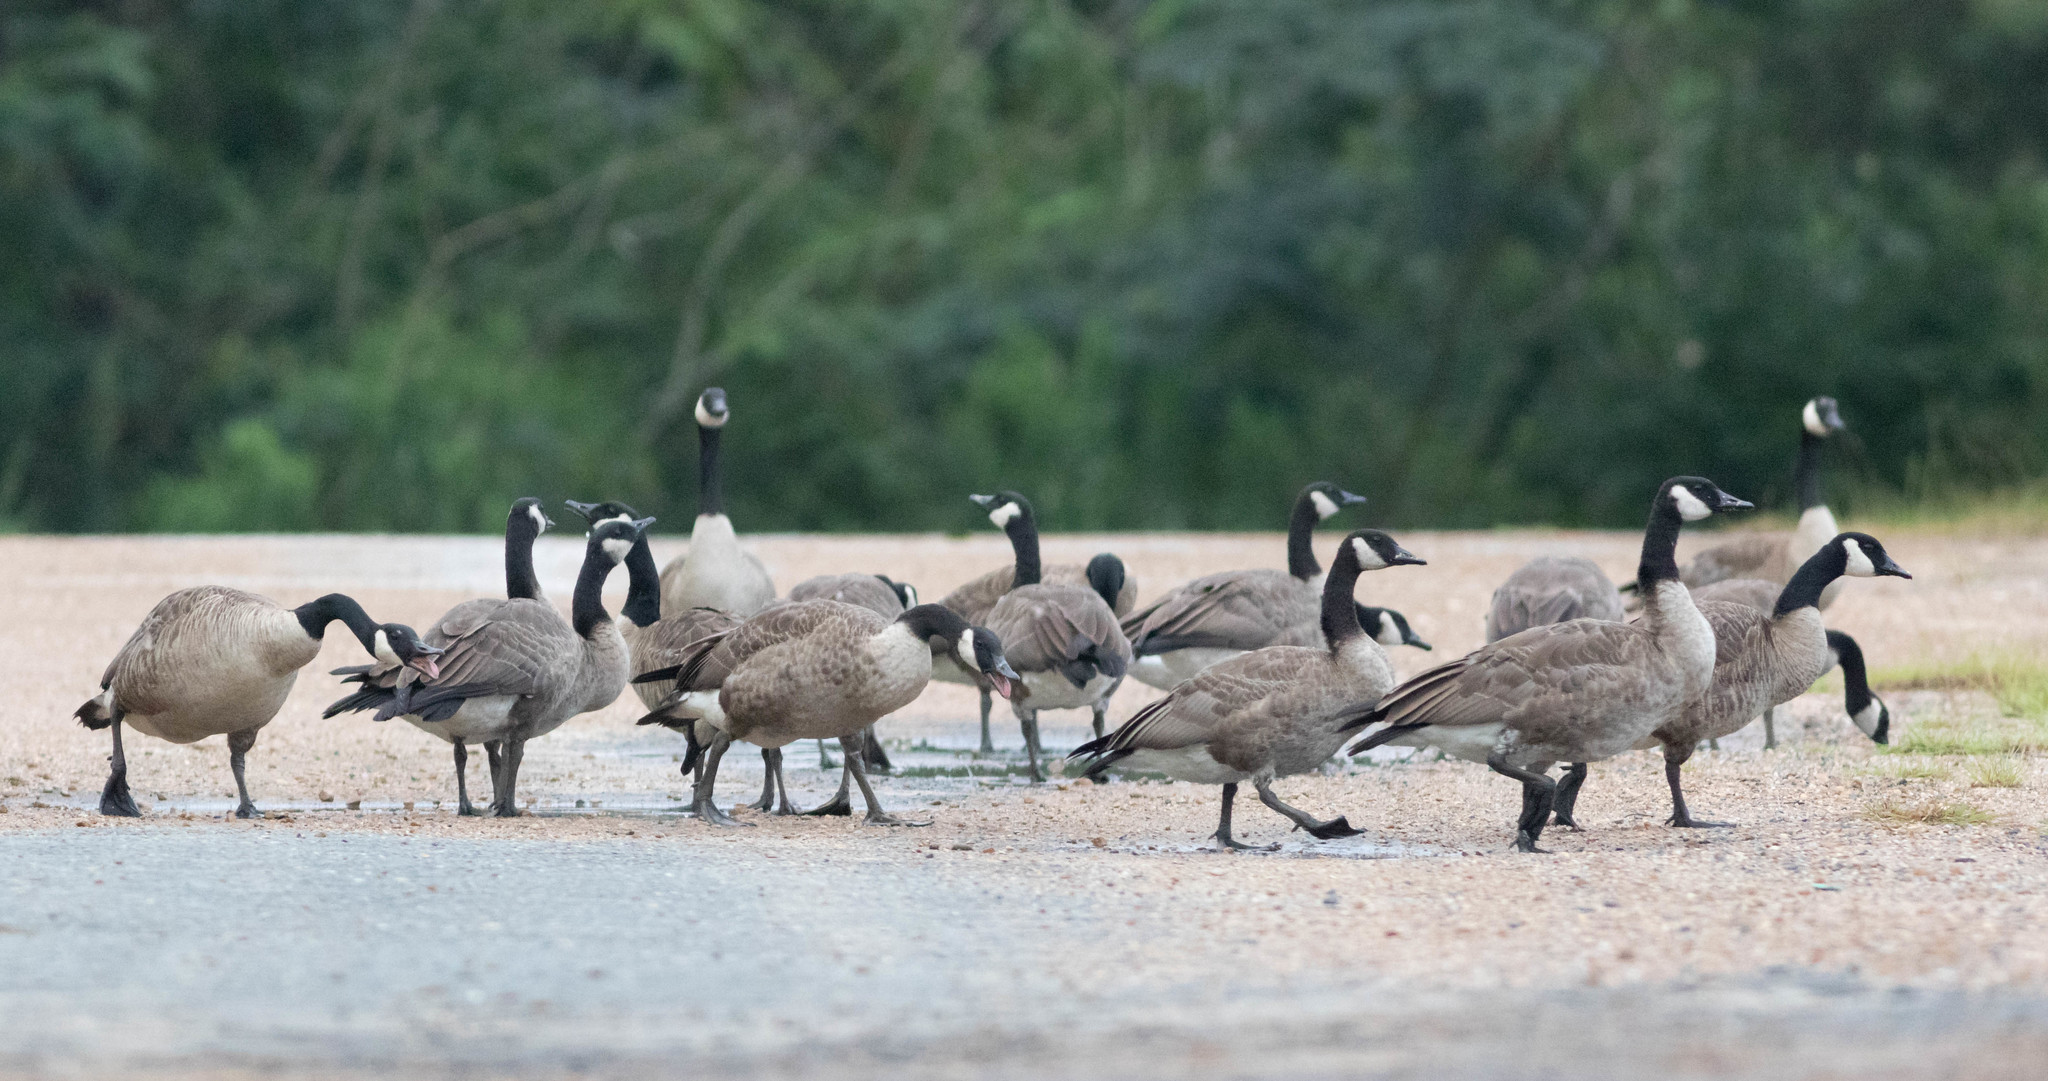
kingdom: Animalia
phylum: Chordata
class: Aves
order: Anseriformes
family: Anatidae
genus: Branta
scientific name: Branta canadensis
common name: Canada goose
